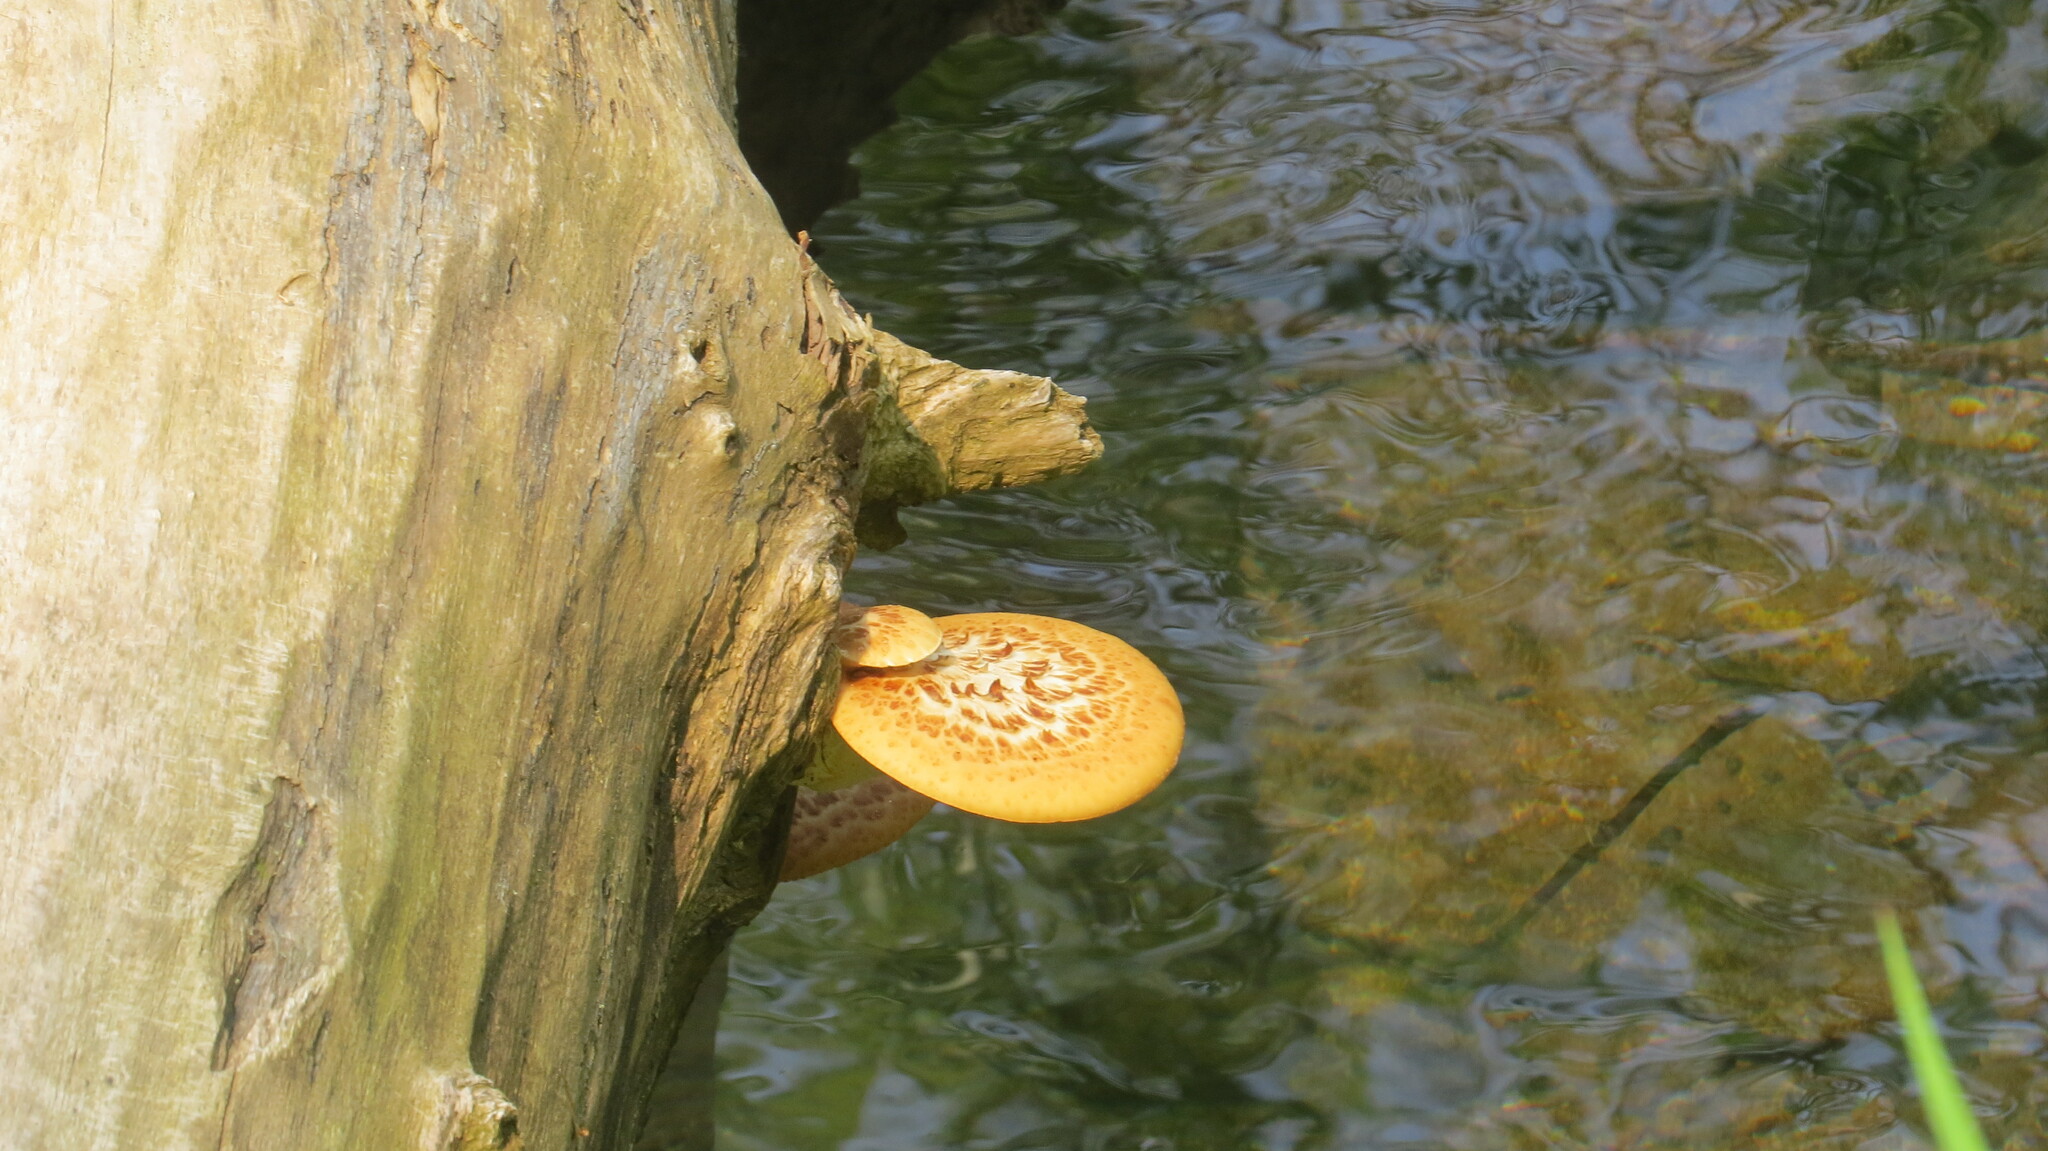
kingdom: Fungi
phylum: Basidiomycota
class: Agaricomycetes
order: Polyporales
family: Polyporaceae
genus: Cerioporus
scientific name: Cerioporus squamosus
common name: Dryad's saddle
